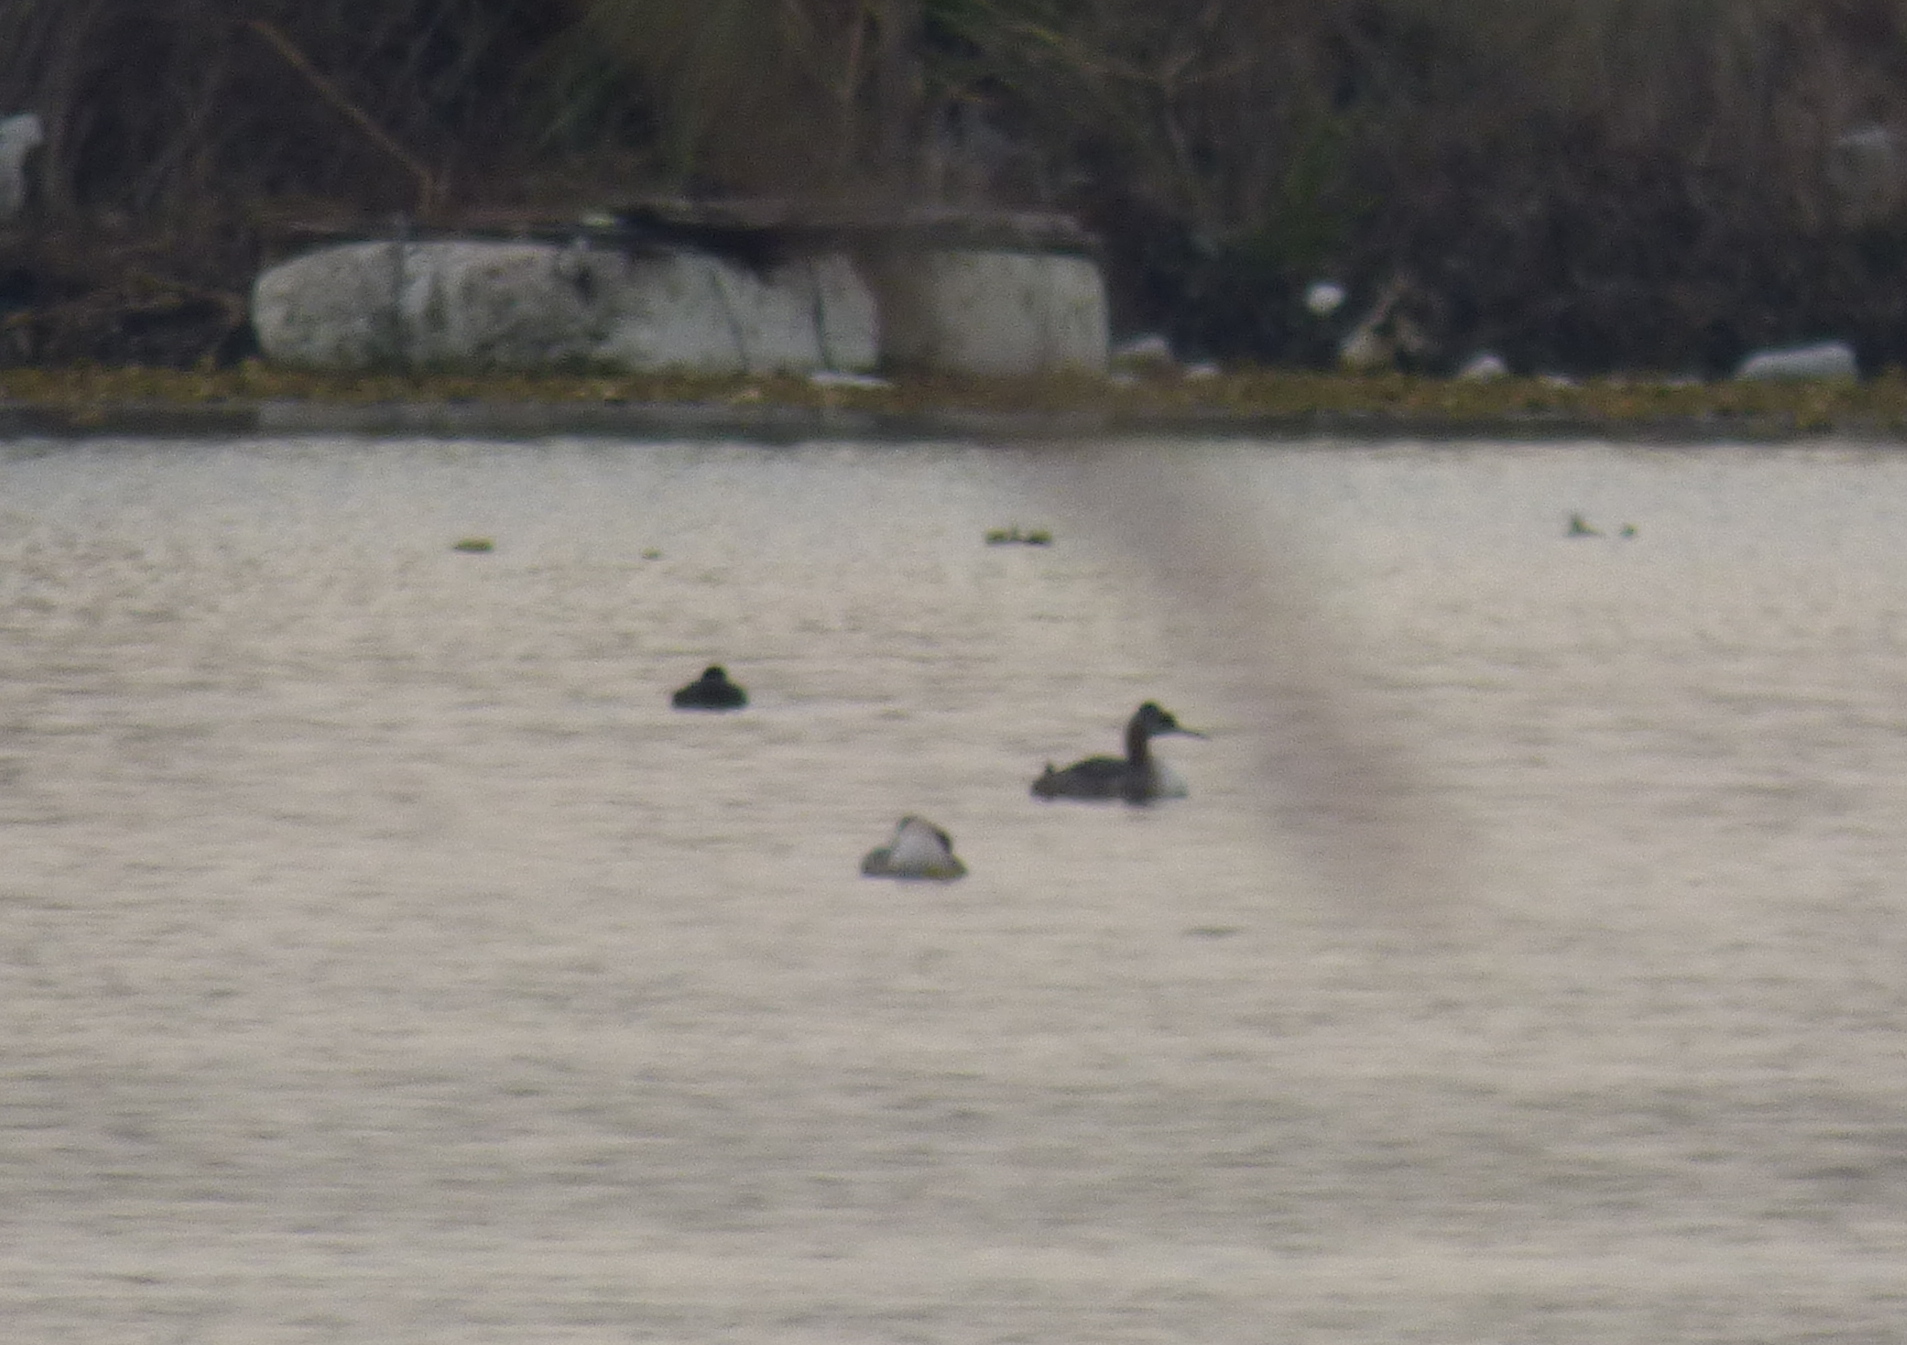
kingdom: Animalia
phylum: Chordata
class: Aves
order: Podicipediformes
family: Podicipedidae
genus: Podiceps
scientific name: Podiceps major
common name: Great grebe
